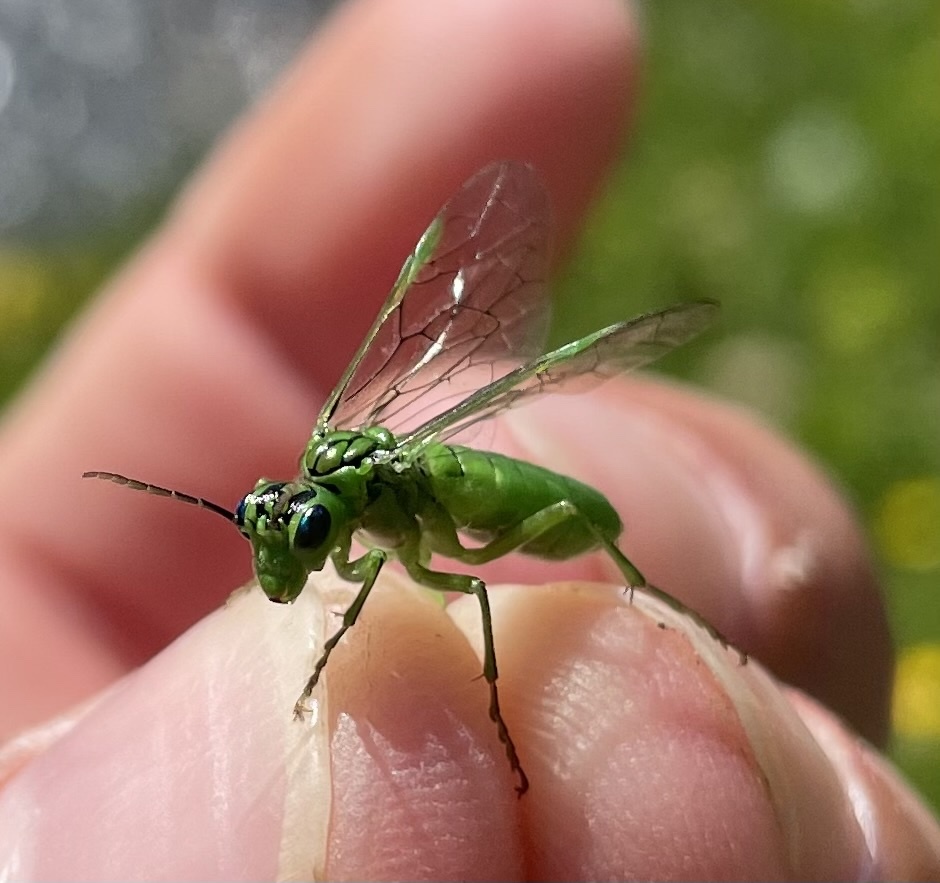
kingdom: Animalia
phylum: Arthropoda
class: Insecta
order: Hymenoptera
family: Tenthredinidae
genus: Tenthredo
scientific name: Tenthredo olivacea
